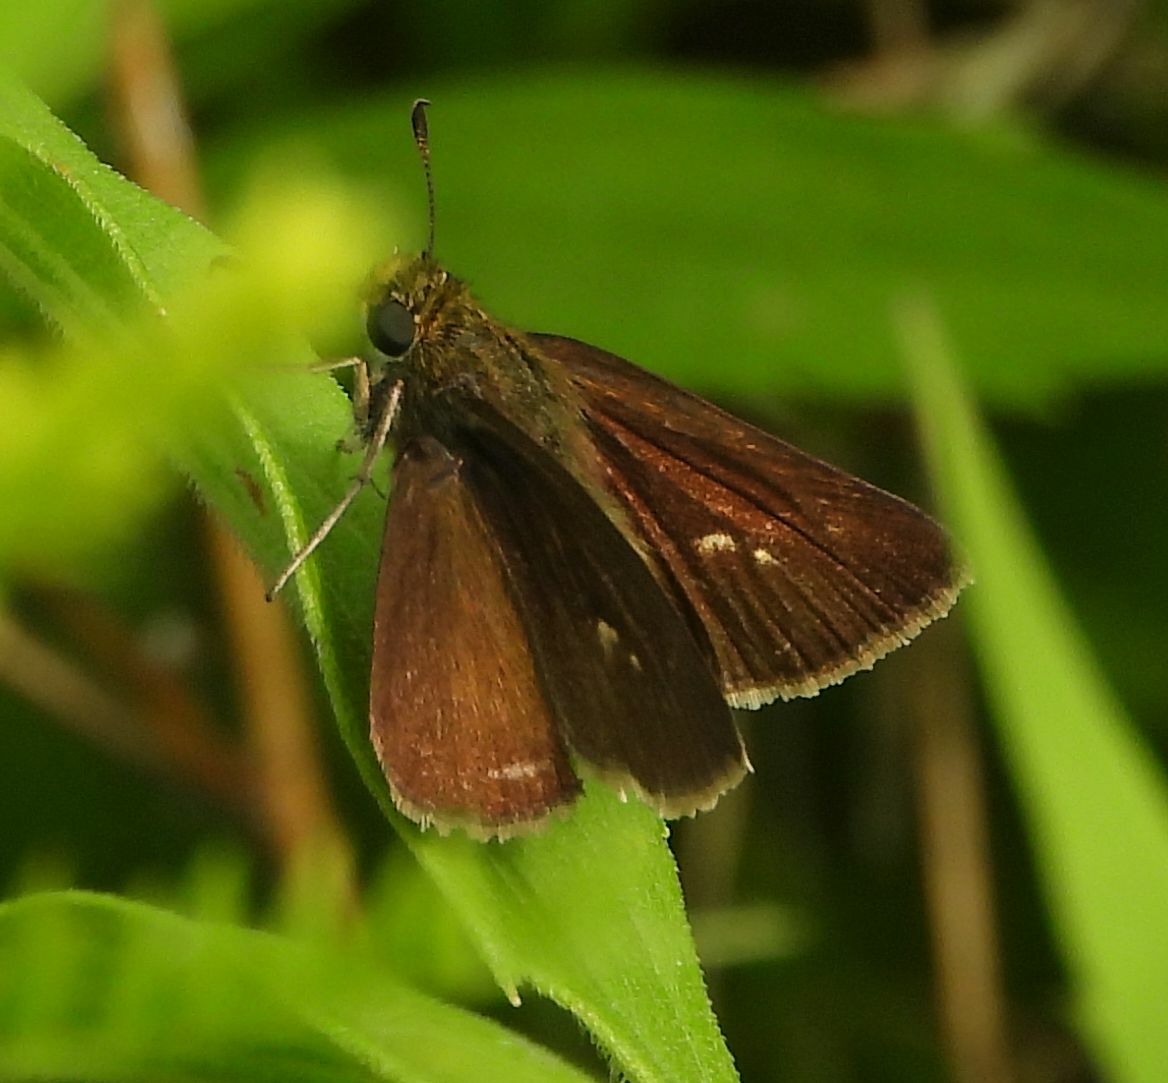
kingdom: Animalia
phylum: Arthropoda
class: Insecta
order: Lepidoptera
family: Hesperiidae
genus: Euphyes
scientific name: Euphyes vestris
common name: Dun skipper
